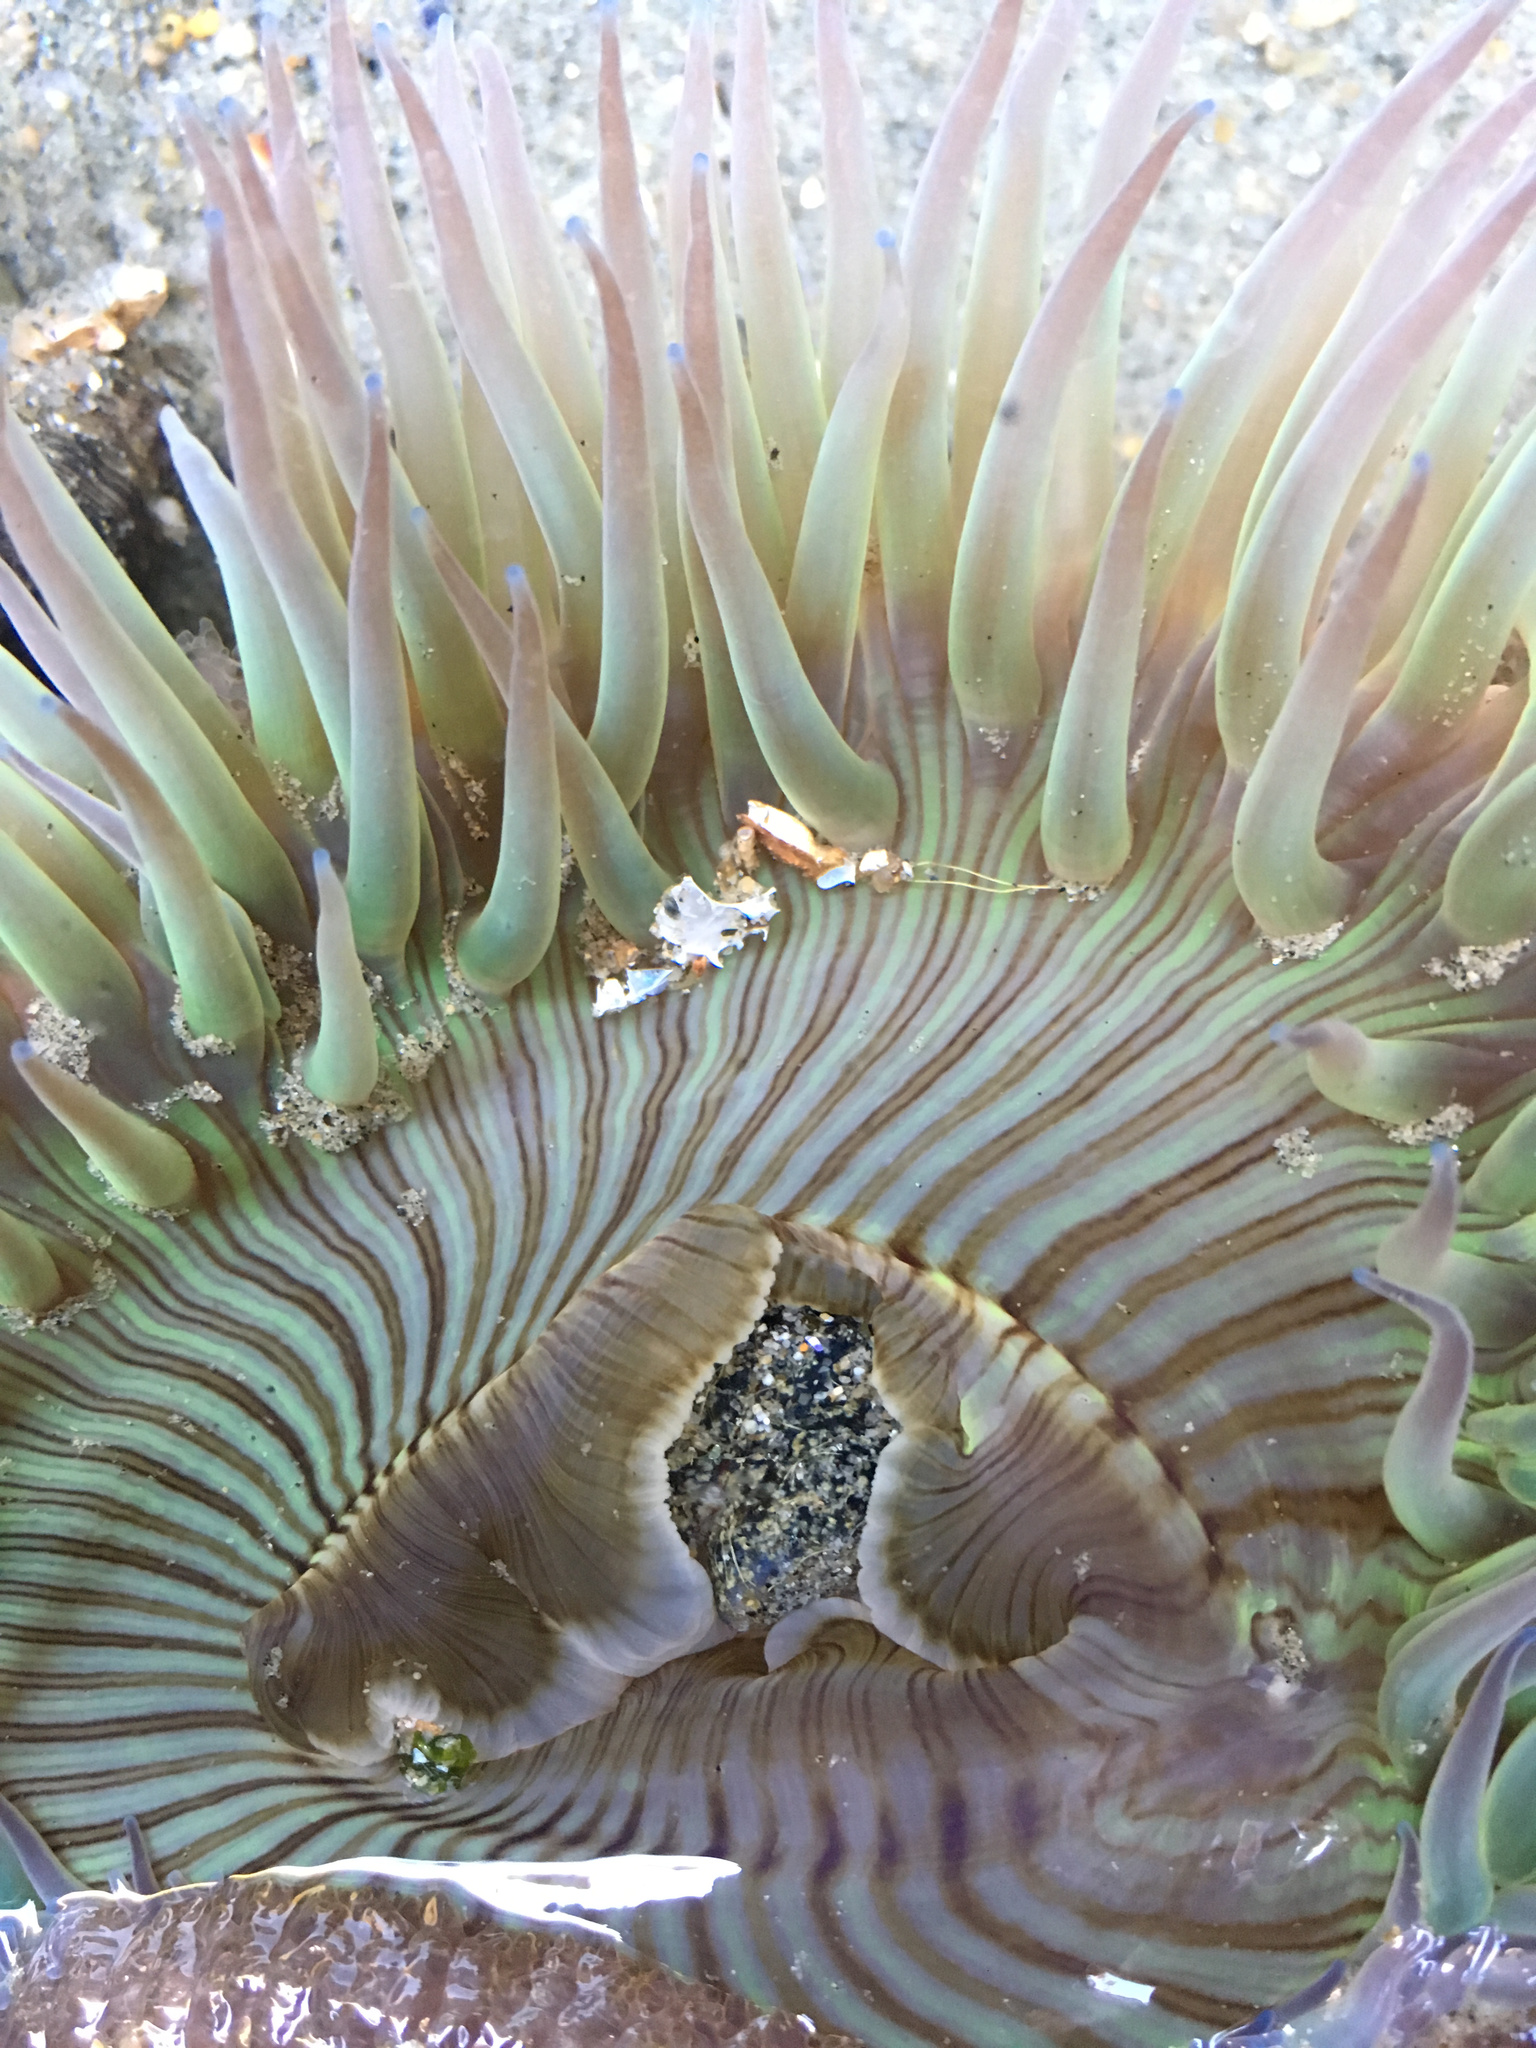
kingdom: Animalia
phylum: Cnidaria
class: Anthozoa
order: Actiniaria
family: Actiniidae
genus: Anthopleura
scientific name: Anthopleura sola
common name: Sun anemone
